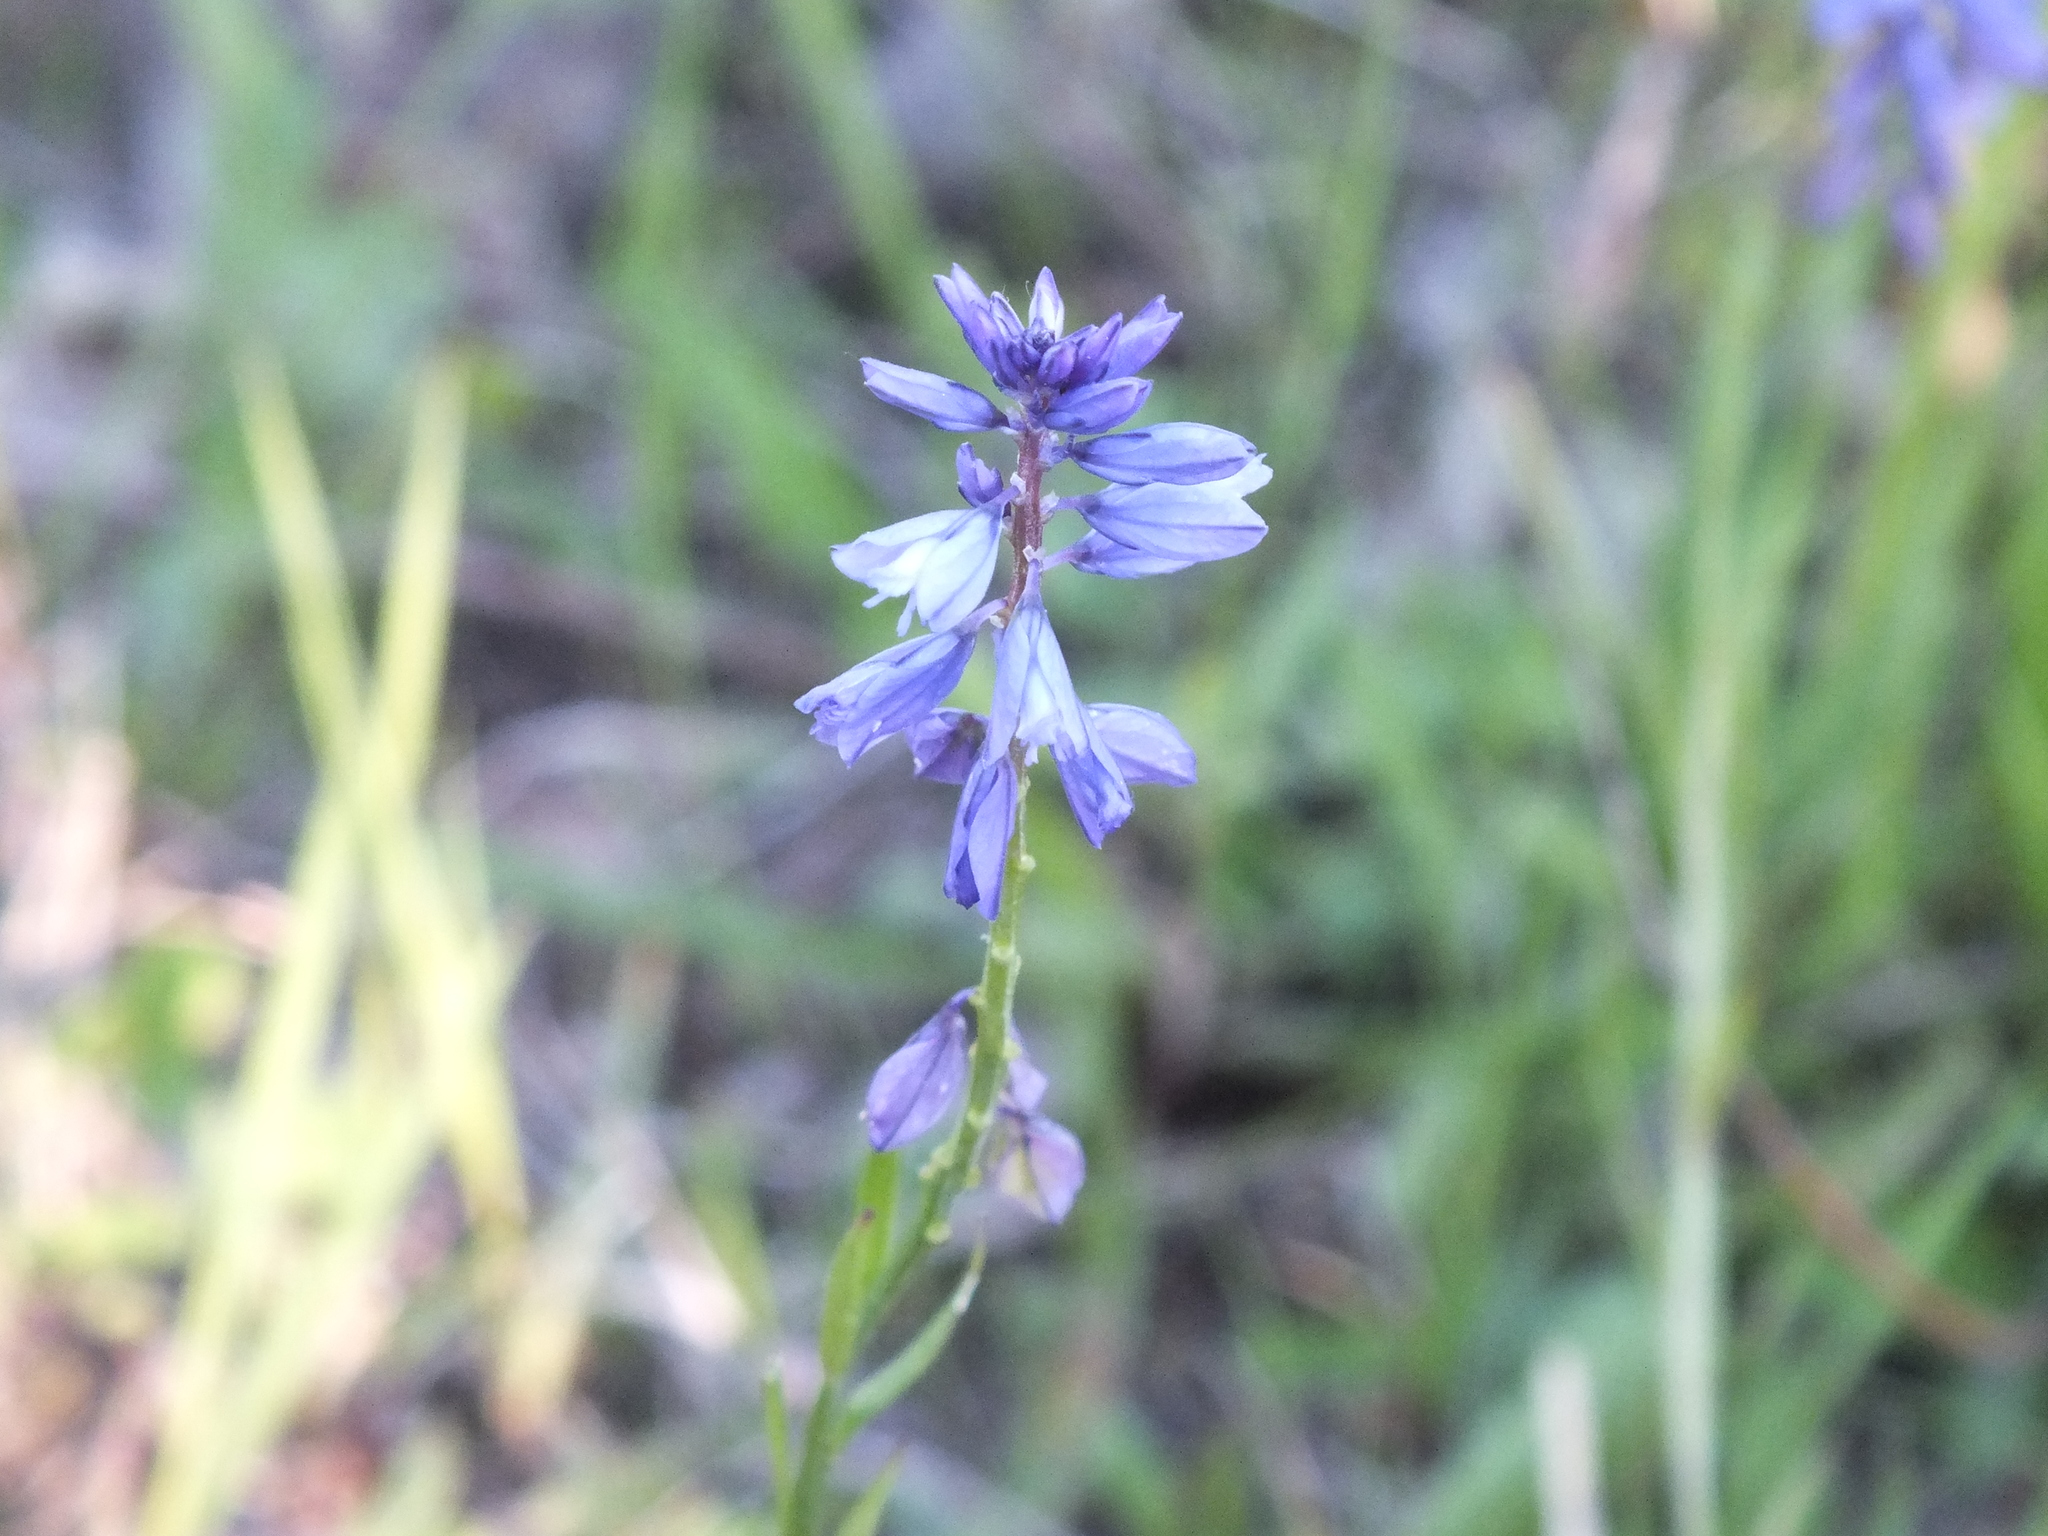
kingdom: Plantae
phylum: Tracheophyta
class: Magnoliopsida
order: Fabales
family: Polygalaceae
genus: Polygala
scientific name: Polygala comosa
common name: Tufted milkwort
